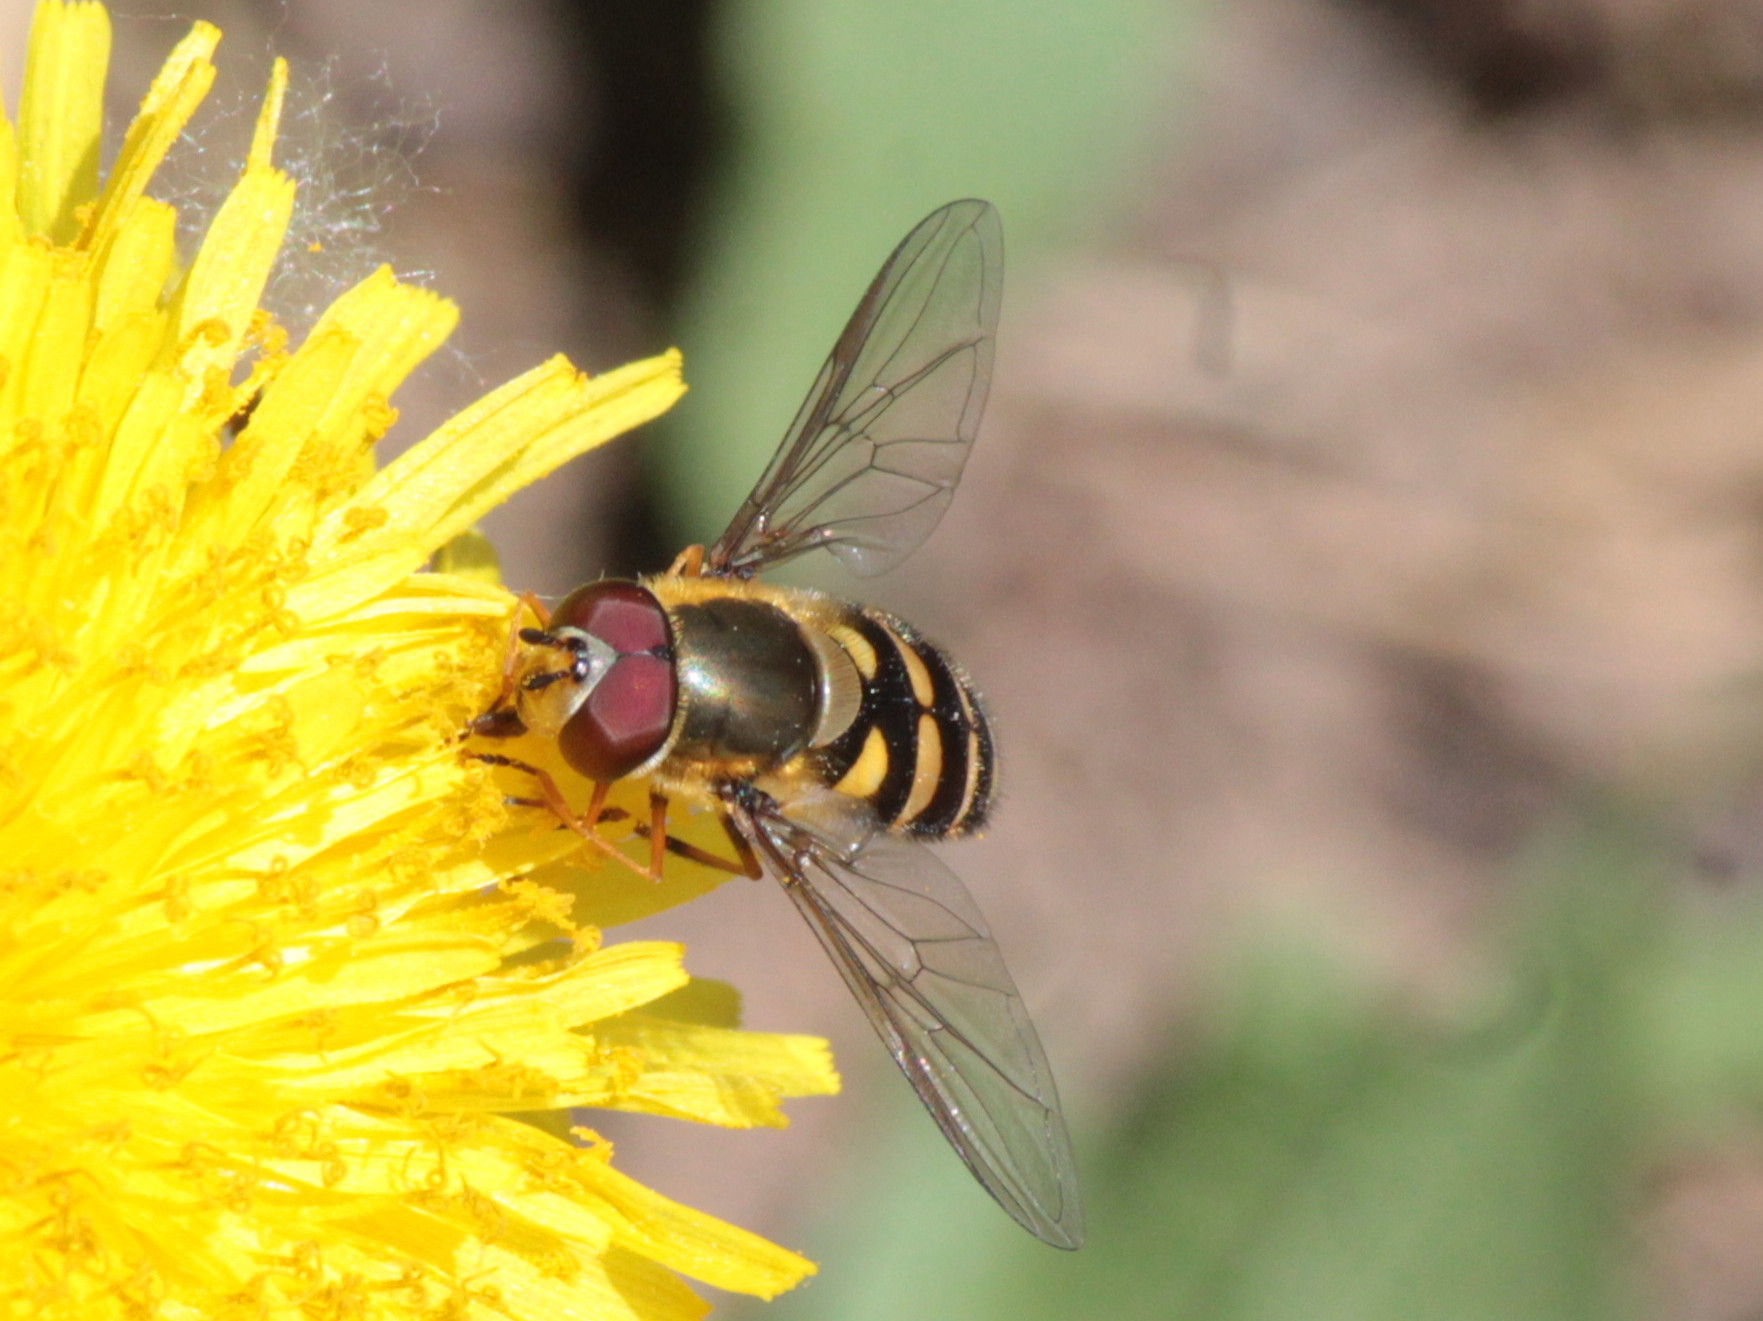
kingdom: Animalia
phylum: Arthropoda
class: Insecta
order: Diptera
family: Syrphidae
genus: Parasyrphus
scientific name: Parasyrphus tarsatus
